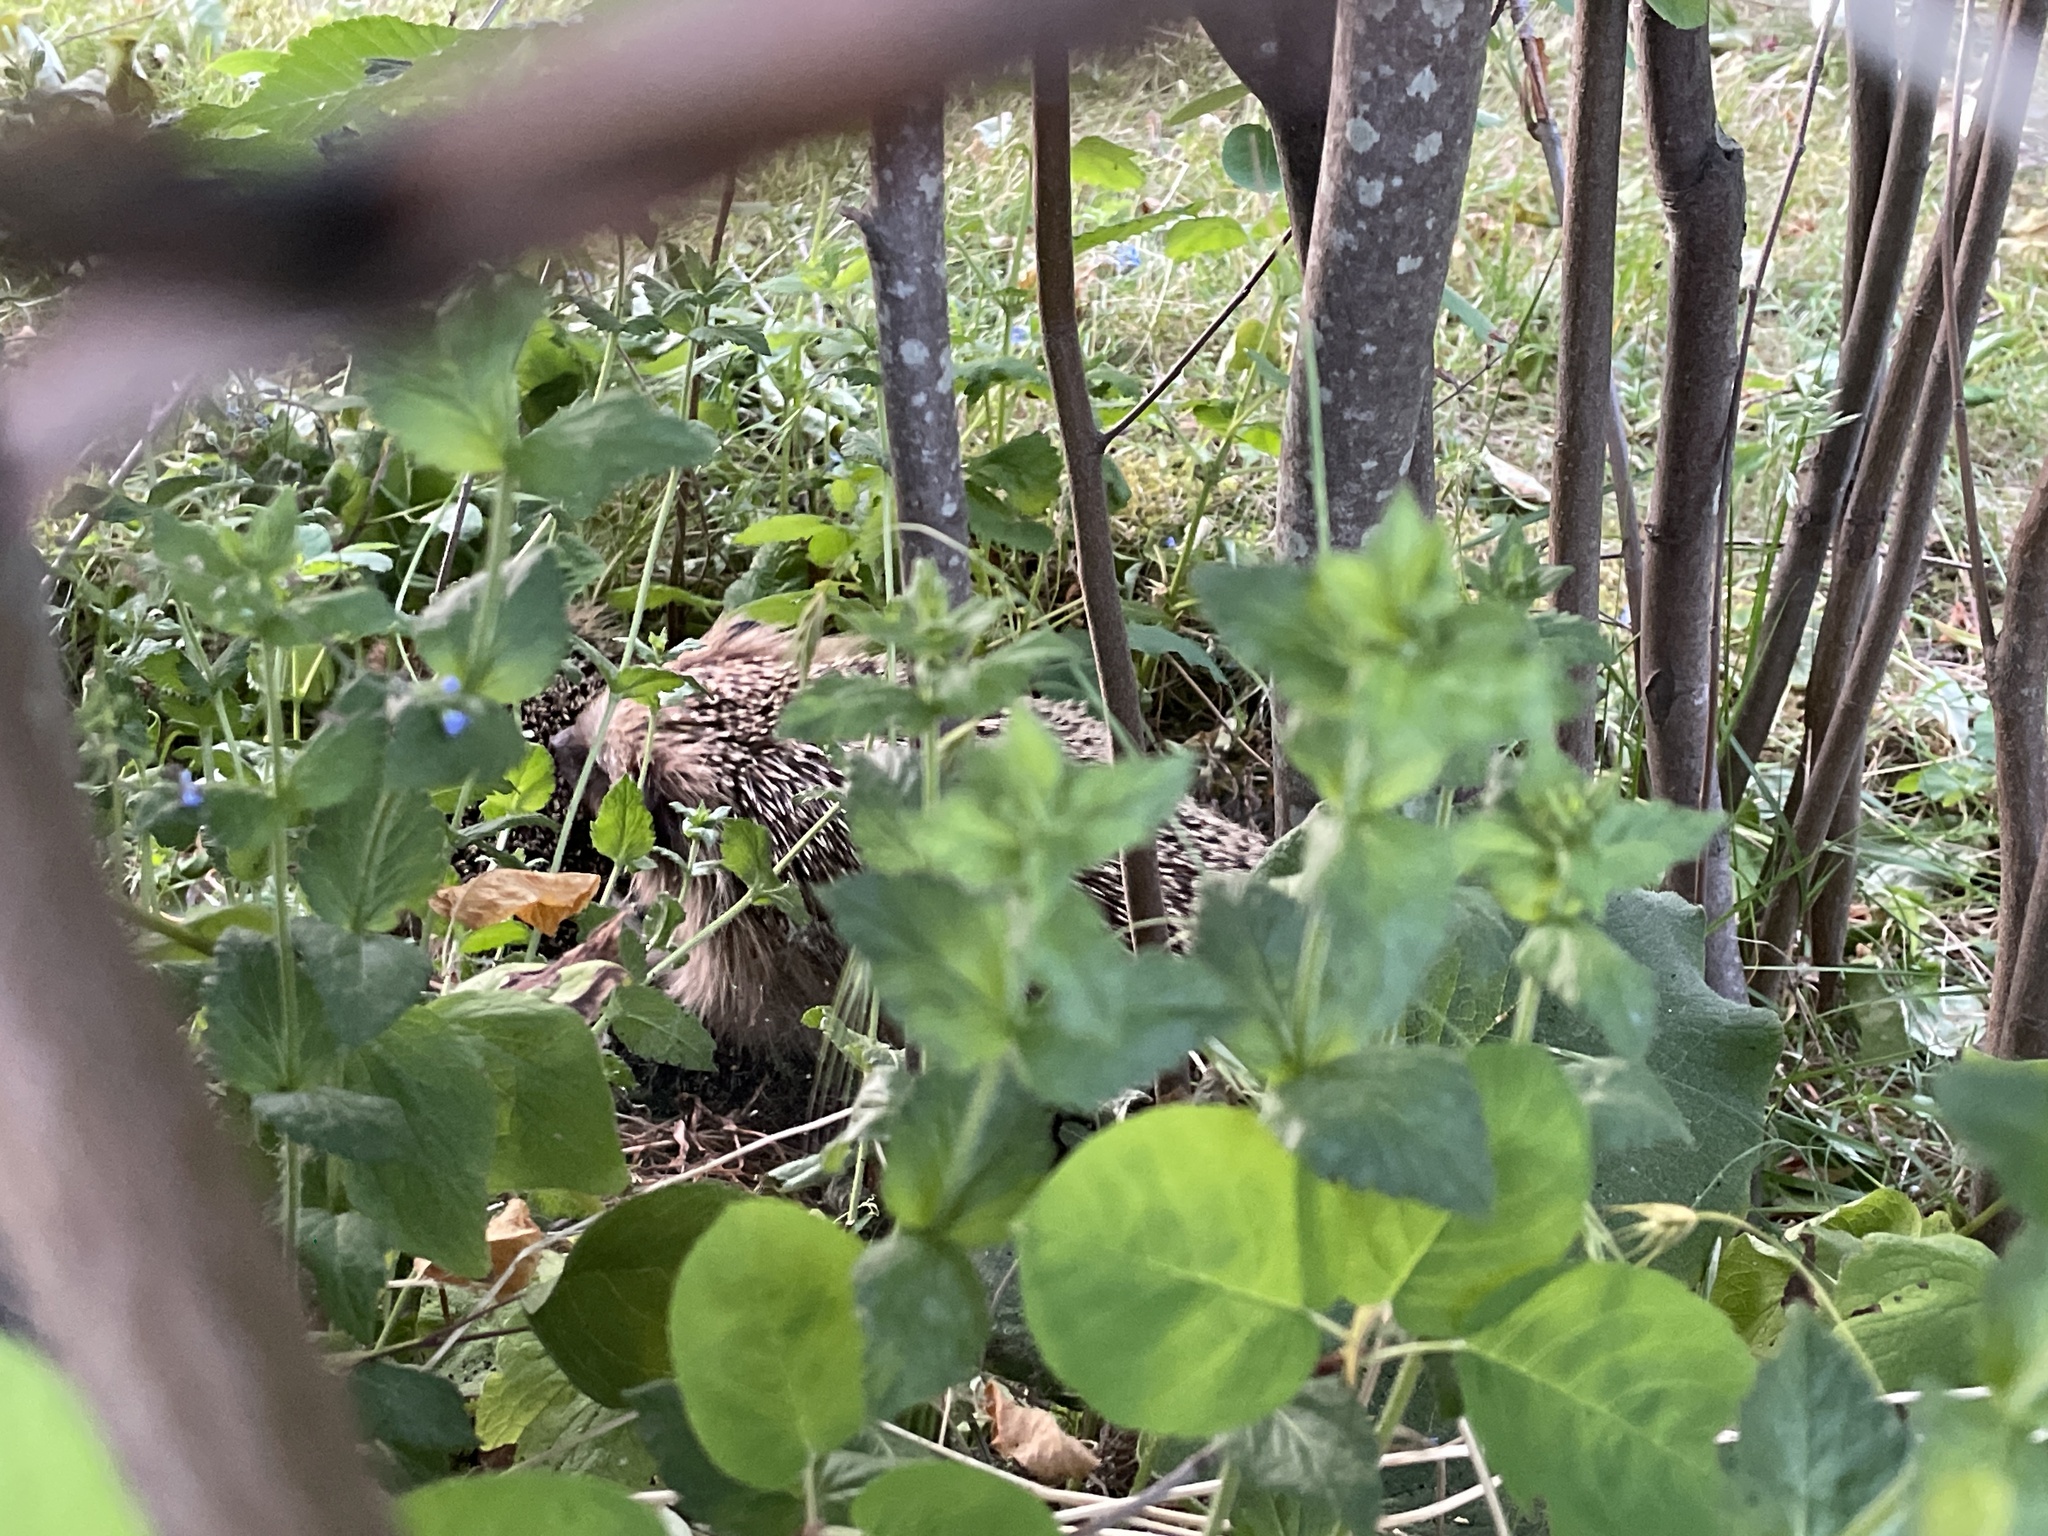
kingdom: Animalia
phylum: Chordata
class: Mammalia
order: Erinaceomorpha
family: Erinaceidae
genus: Erinaceus
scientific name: Erinaceus europaeus
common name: West european hedgehog
